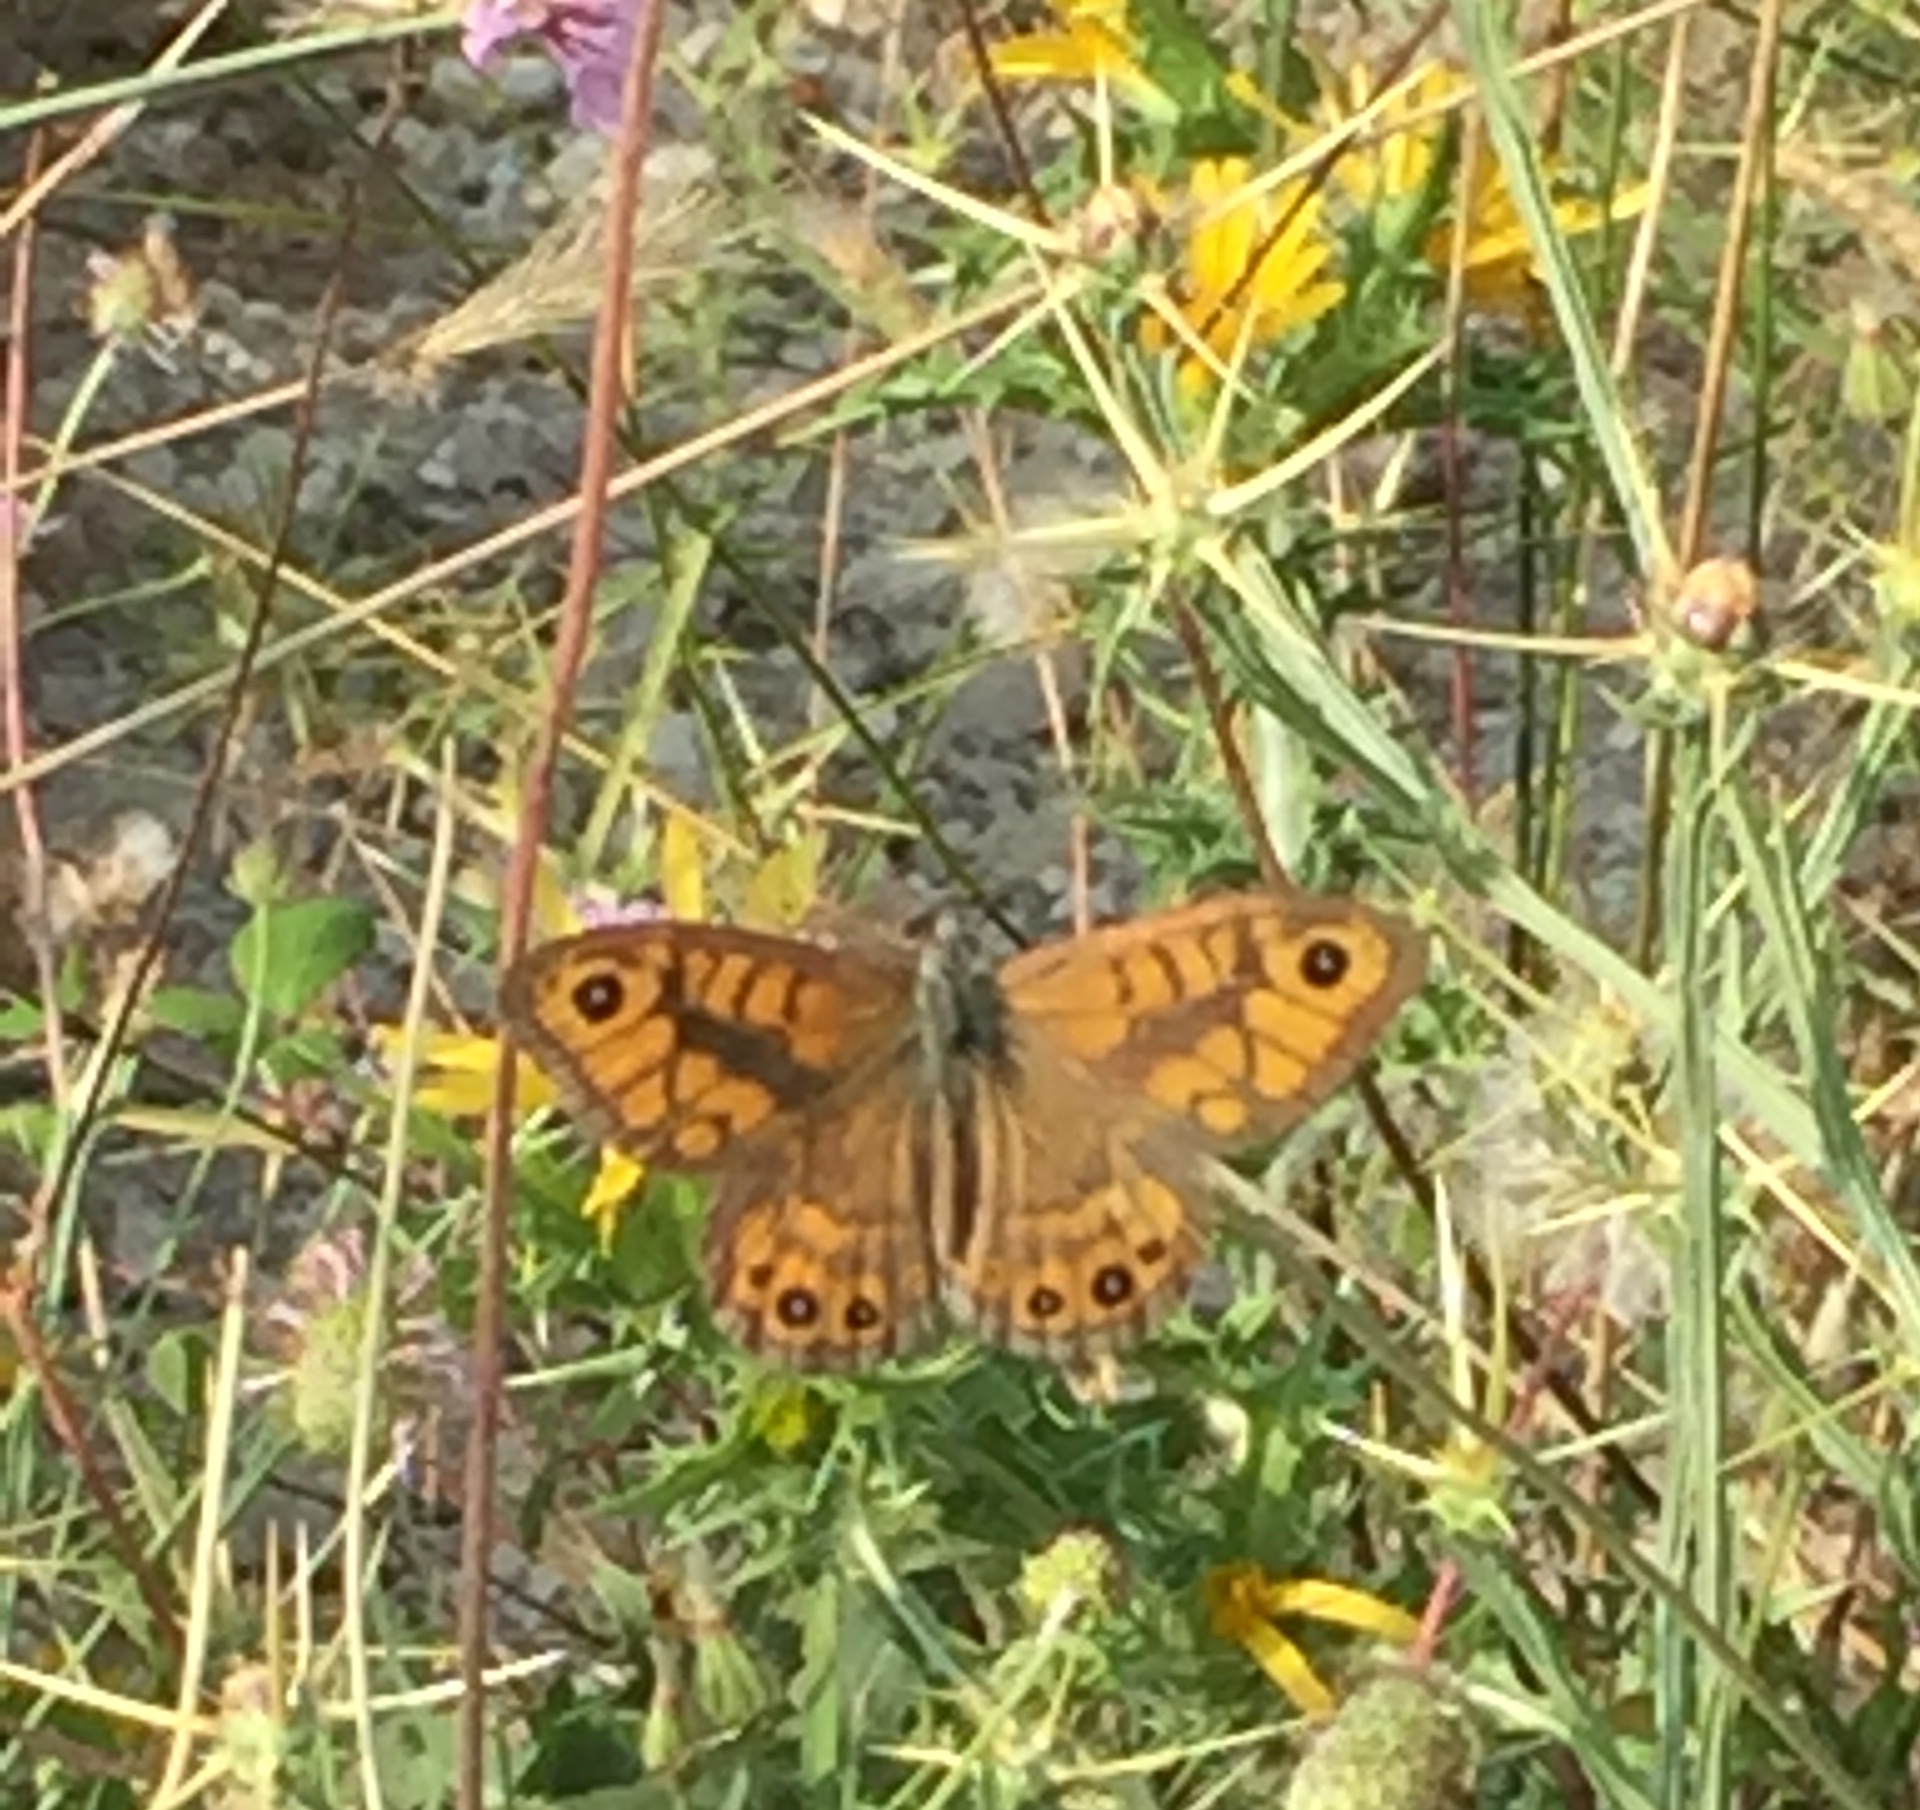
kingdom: Animalia
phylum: Arthropoda
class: Insecta
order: Lepidoptera
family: Nymphalidae
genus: Pararge
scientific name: Pararge Lasiommata megera
